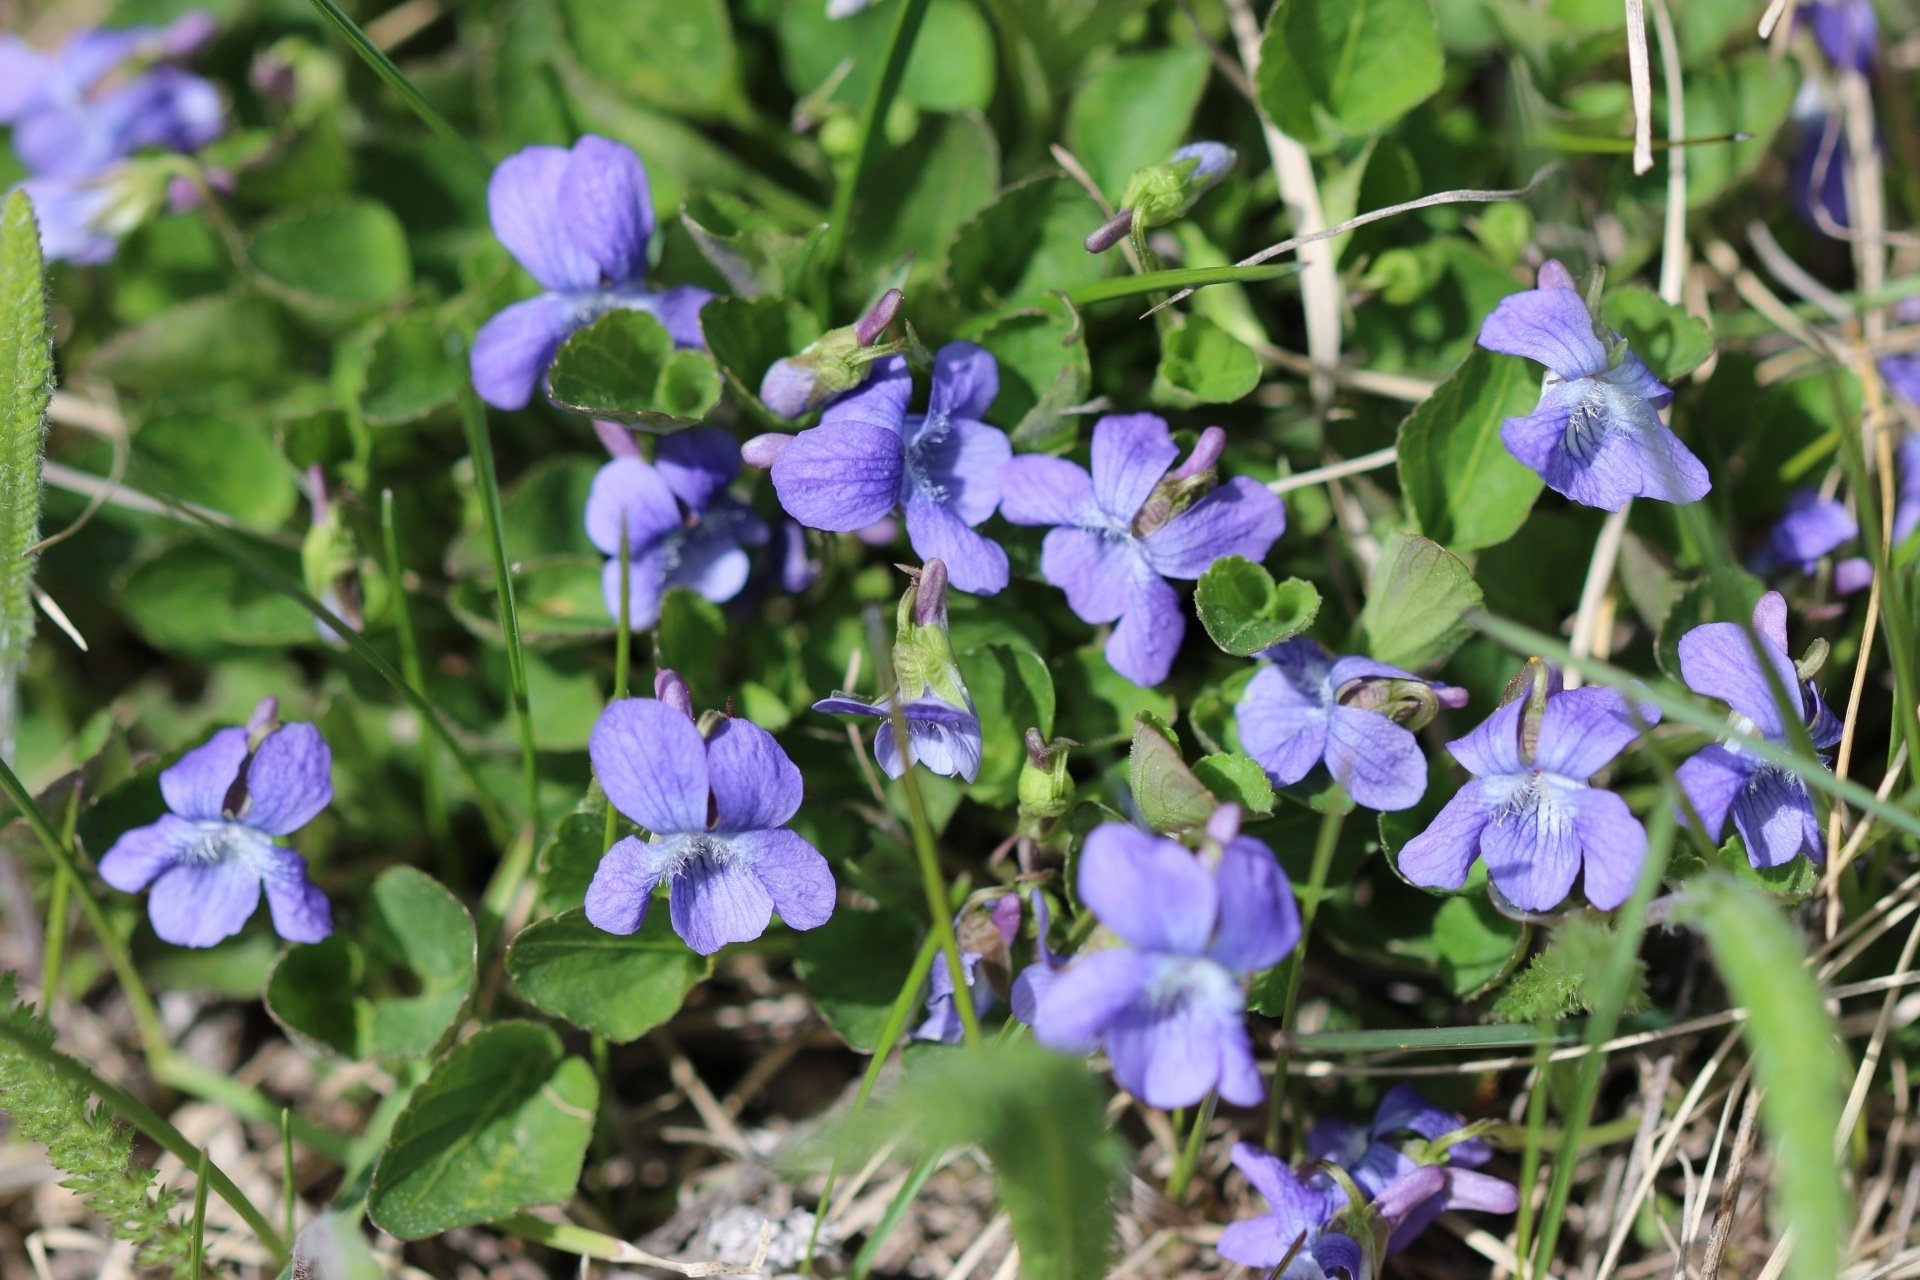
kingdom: Plantae
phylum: Tracheophyta
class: Magnoliopsida
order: Malpighiales
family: Violaceae
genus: Viola
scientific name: Viola adunca
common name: Sand violet
